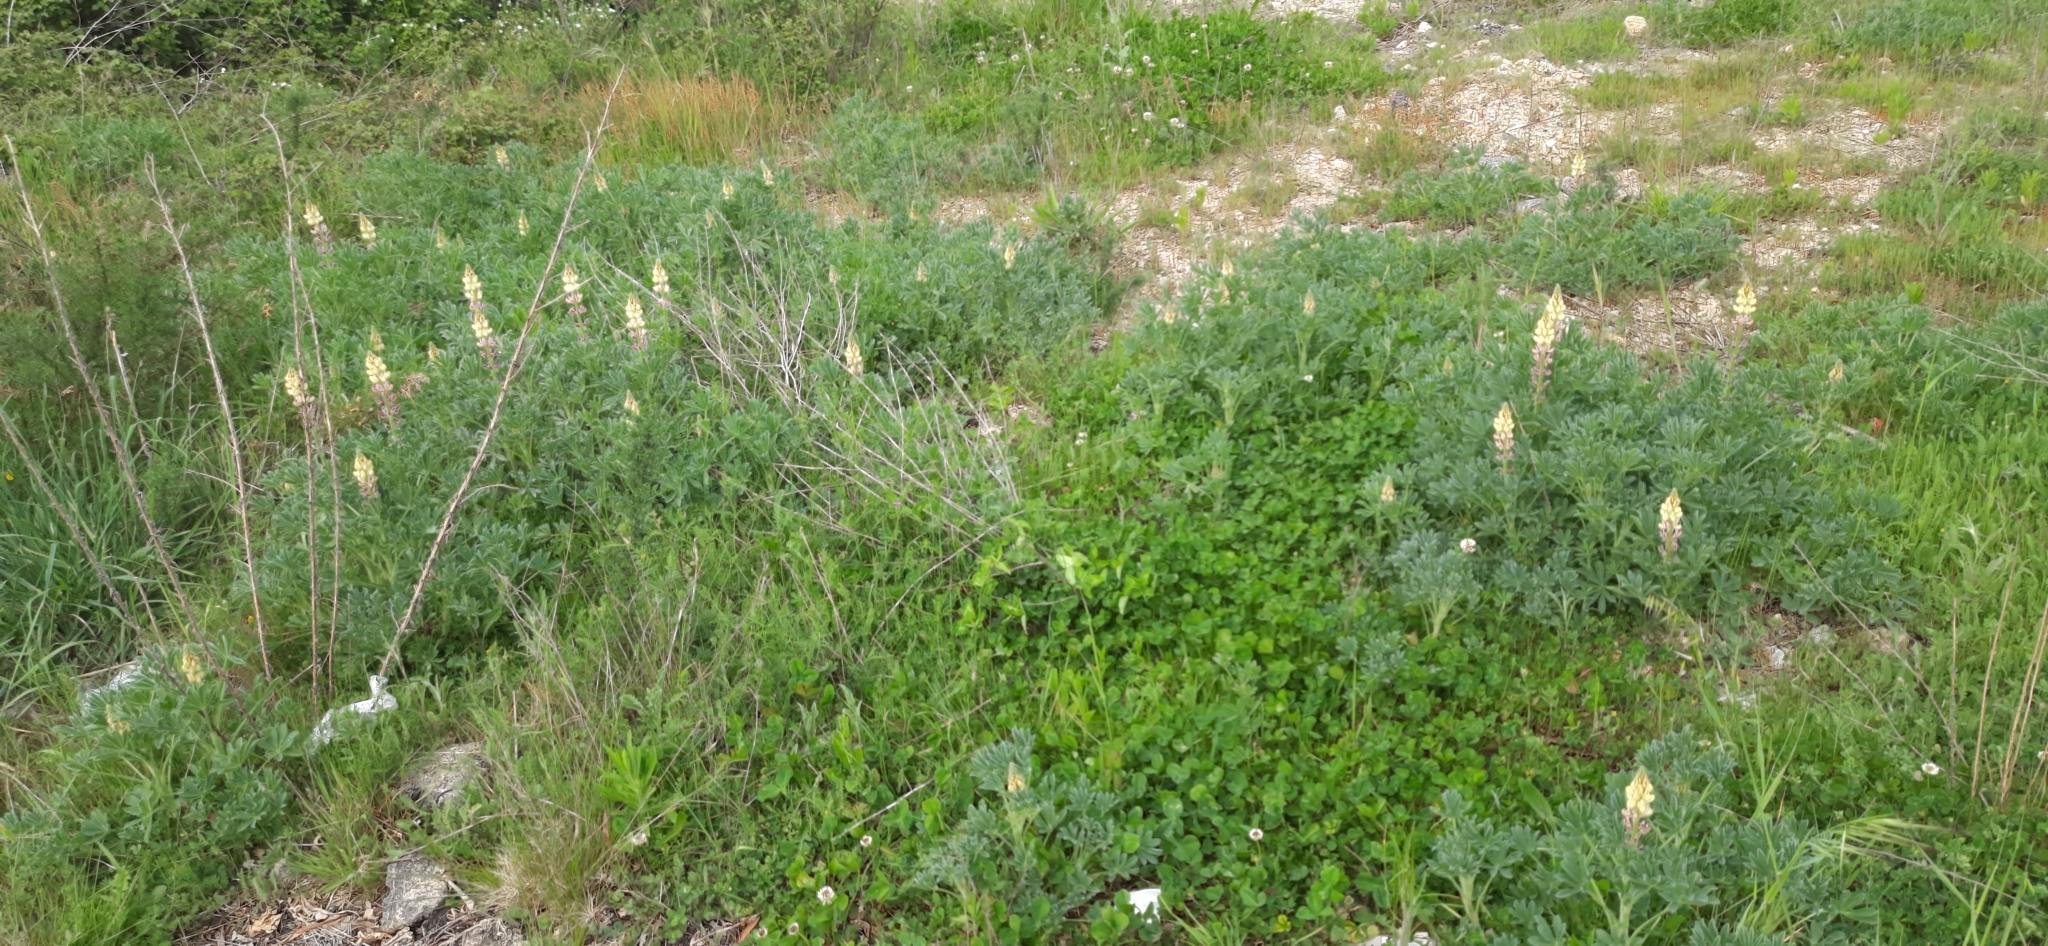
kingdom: Plantae
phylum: Tracheophyta
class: Magnoliopsida
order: Fabales
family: Fabaceae
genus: Lupinus
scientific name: Lupinus gredensis
